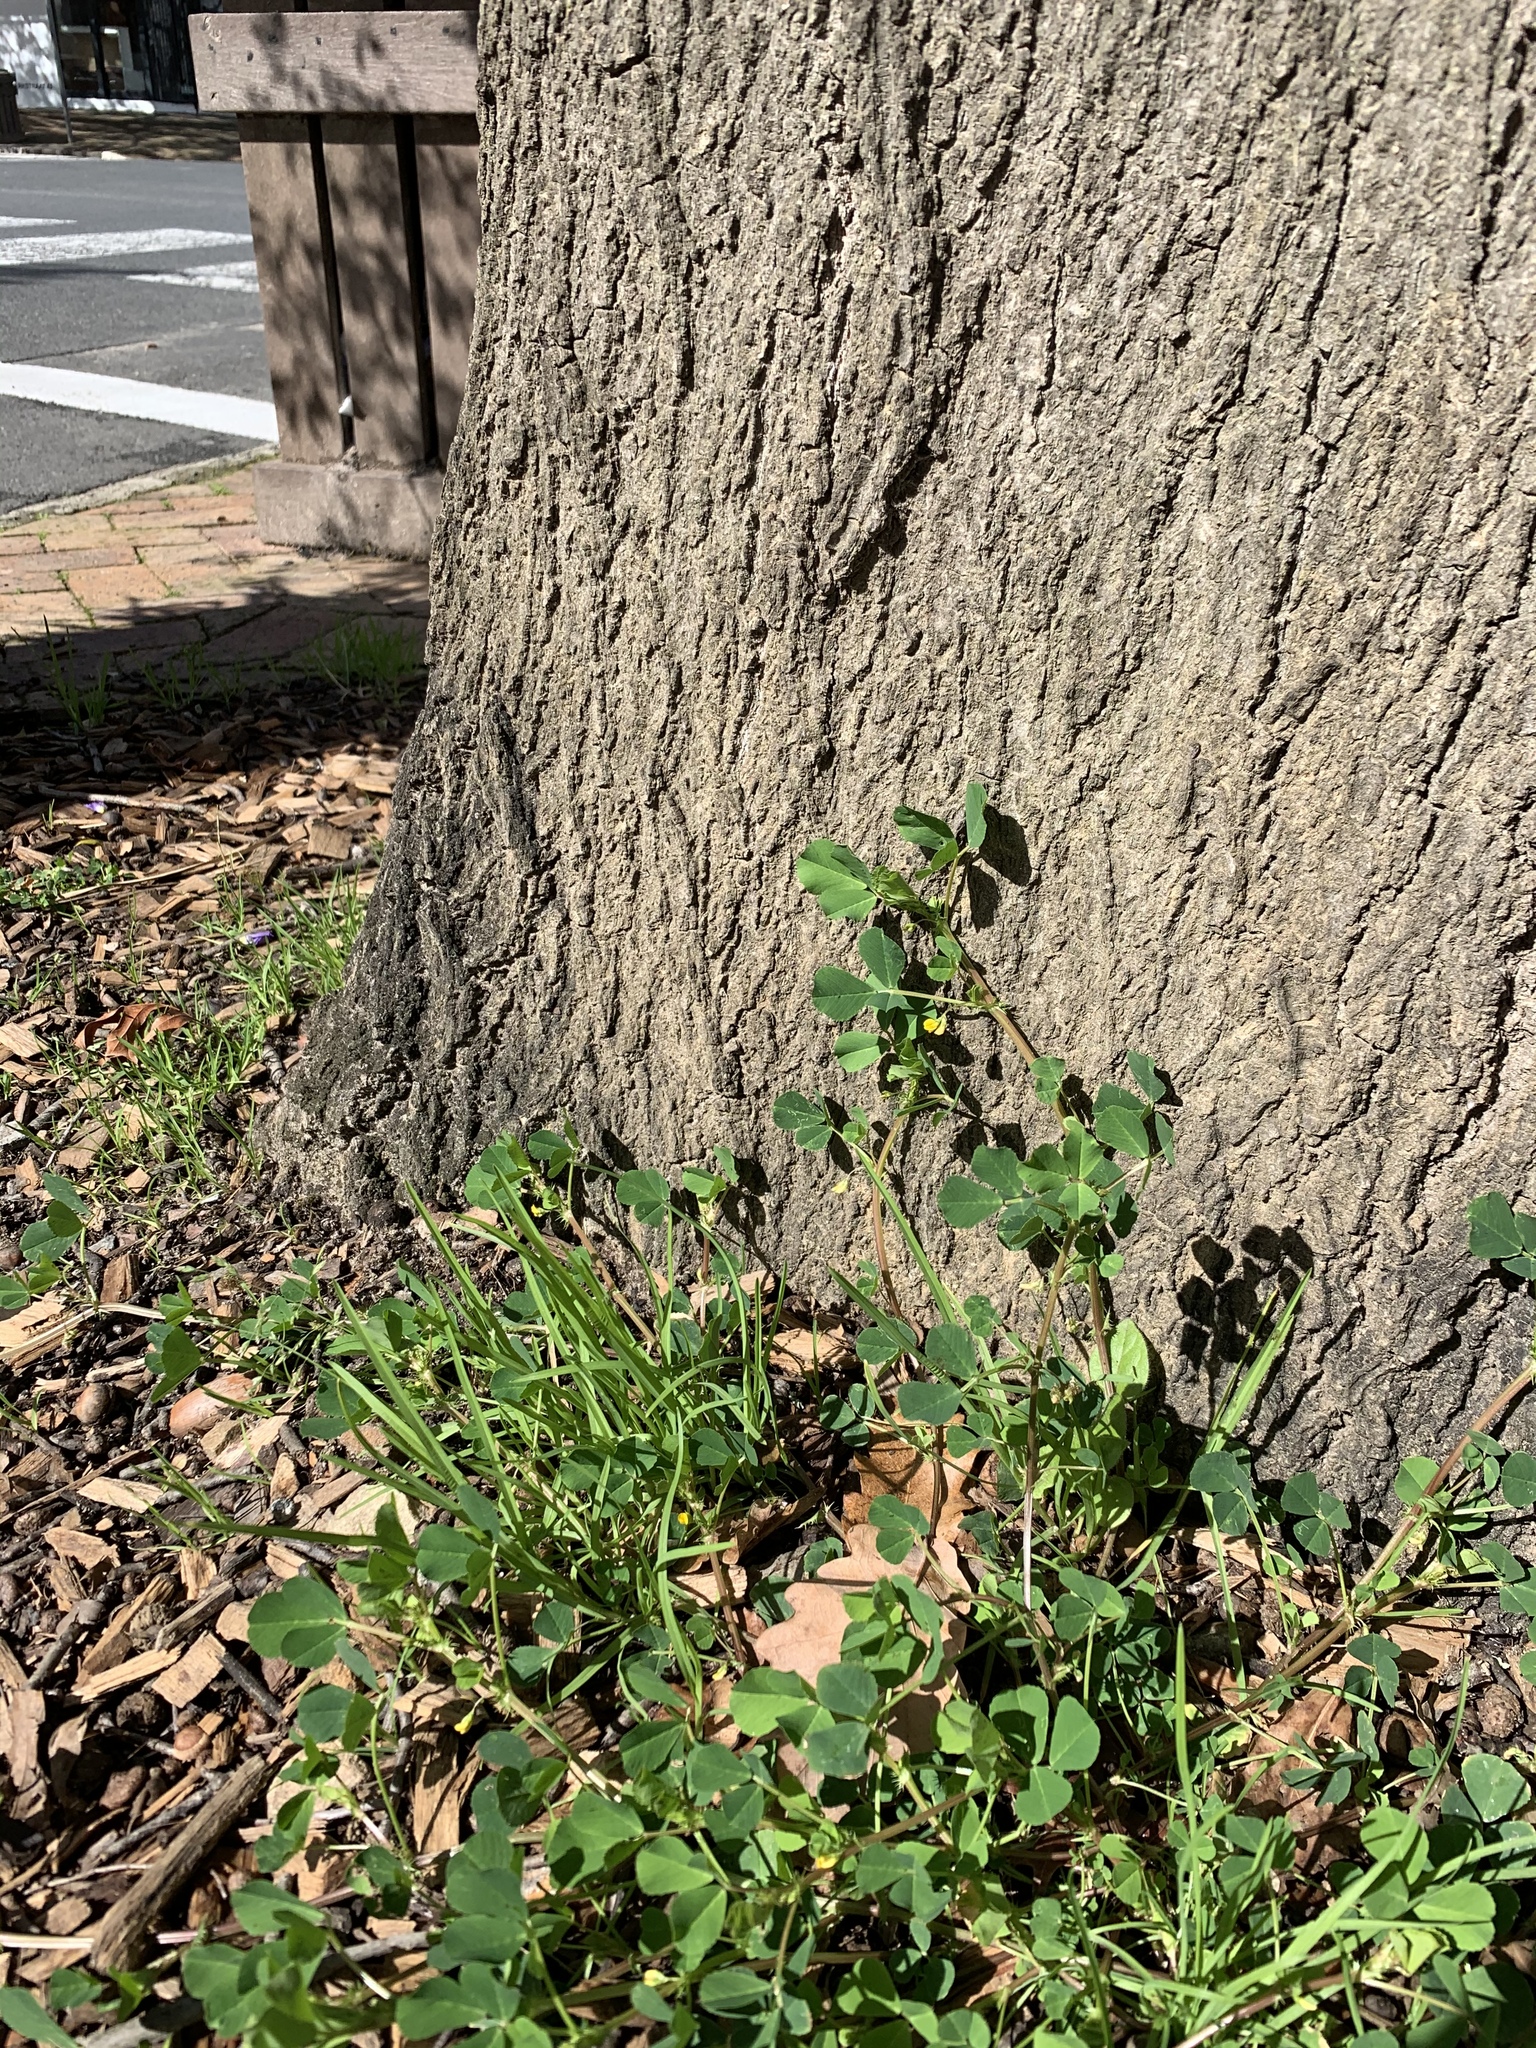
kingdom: Plantae
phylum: Tracheophyta
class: Magnoliopsida
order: Fabales
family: Fabaceae
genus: Medicago
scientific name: Medicago polymorpha
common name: Burclover
